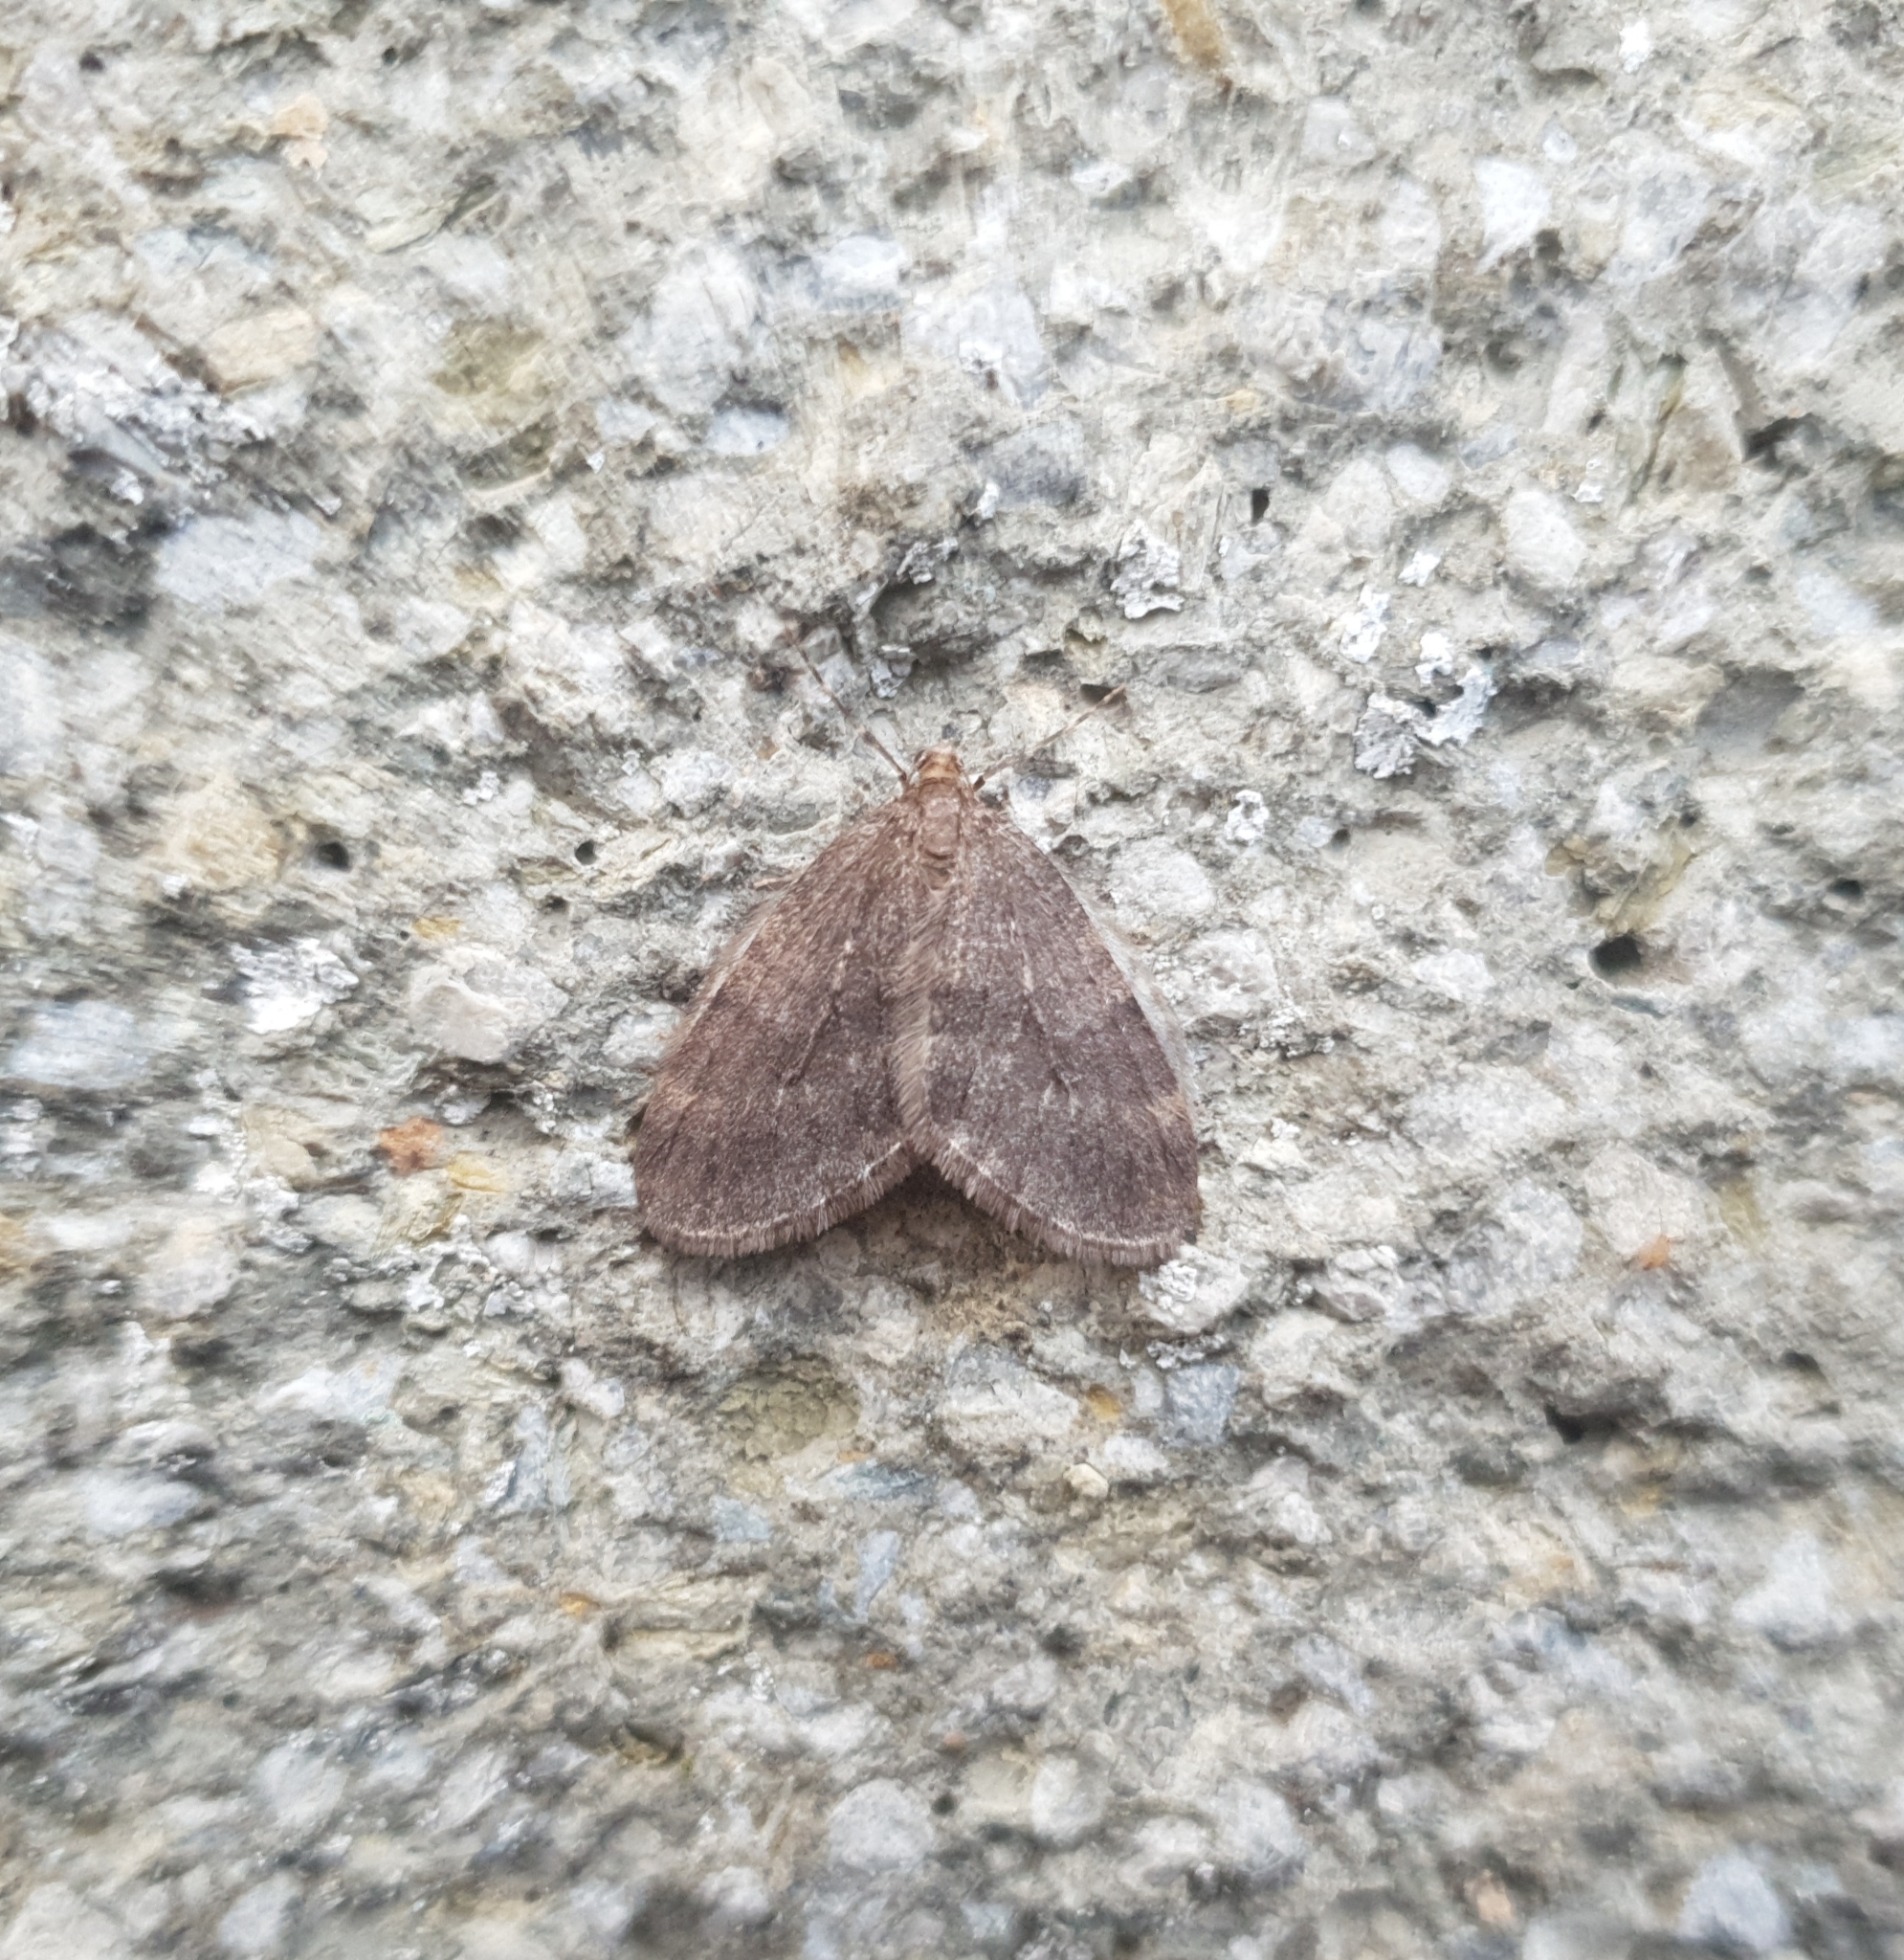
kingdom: Animalia
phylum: Arthropoda
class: Insecta
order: Lepidoptera
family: Geometridae
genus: Operophtera
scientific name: Operophtera brumata
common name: Winter moth
